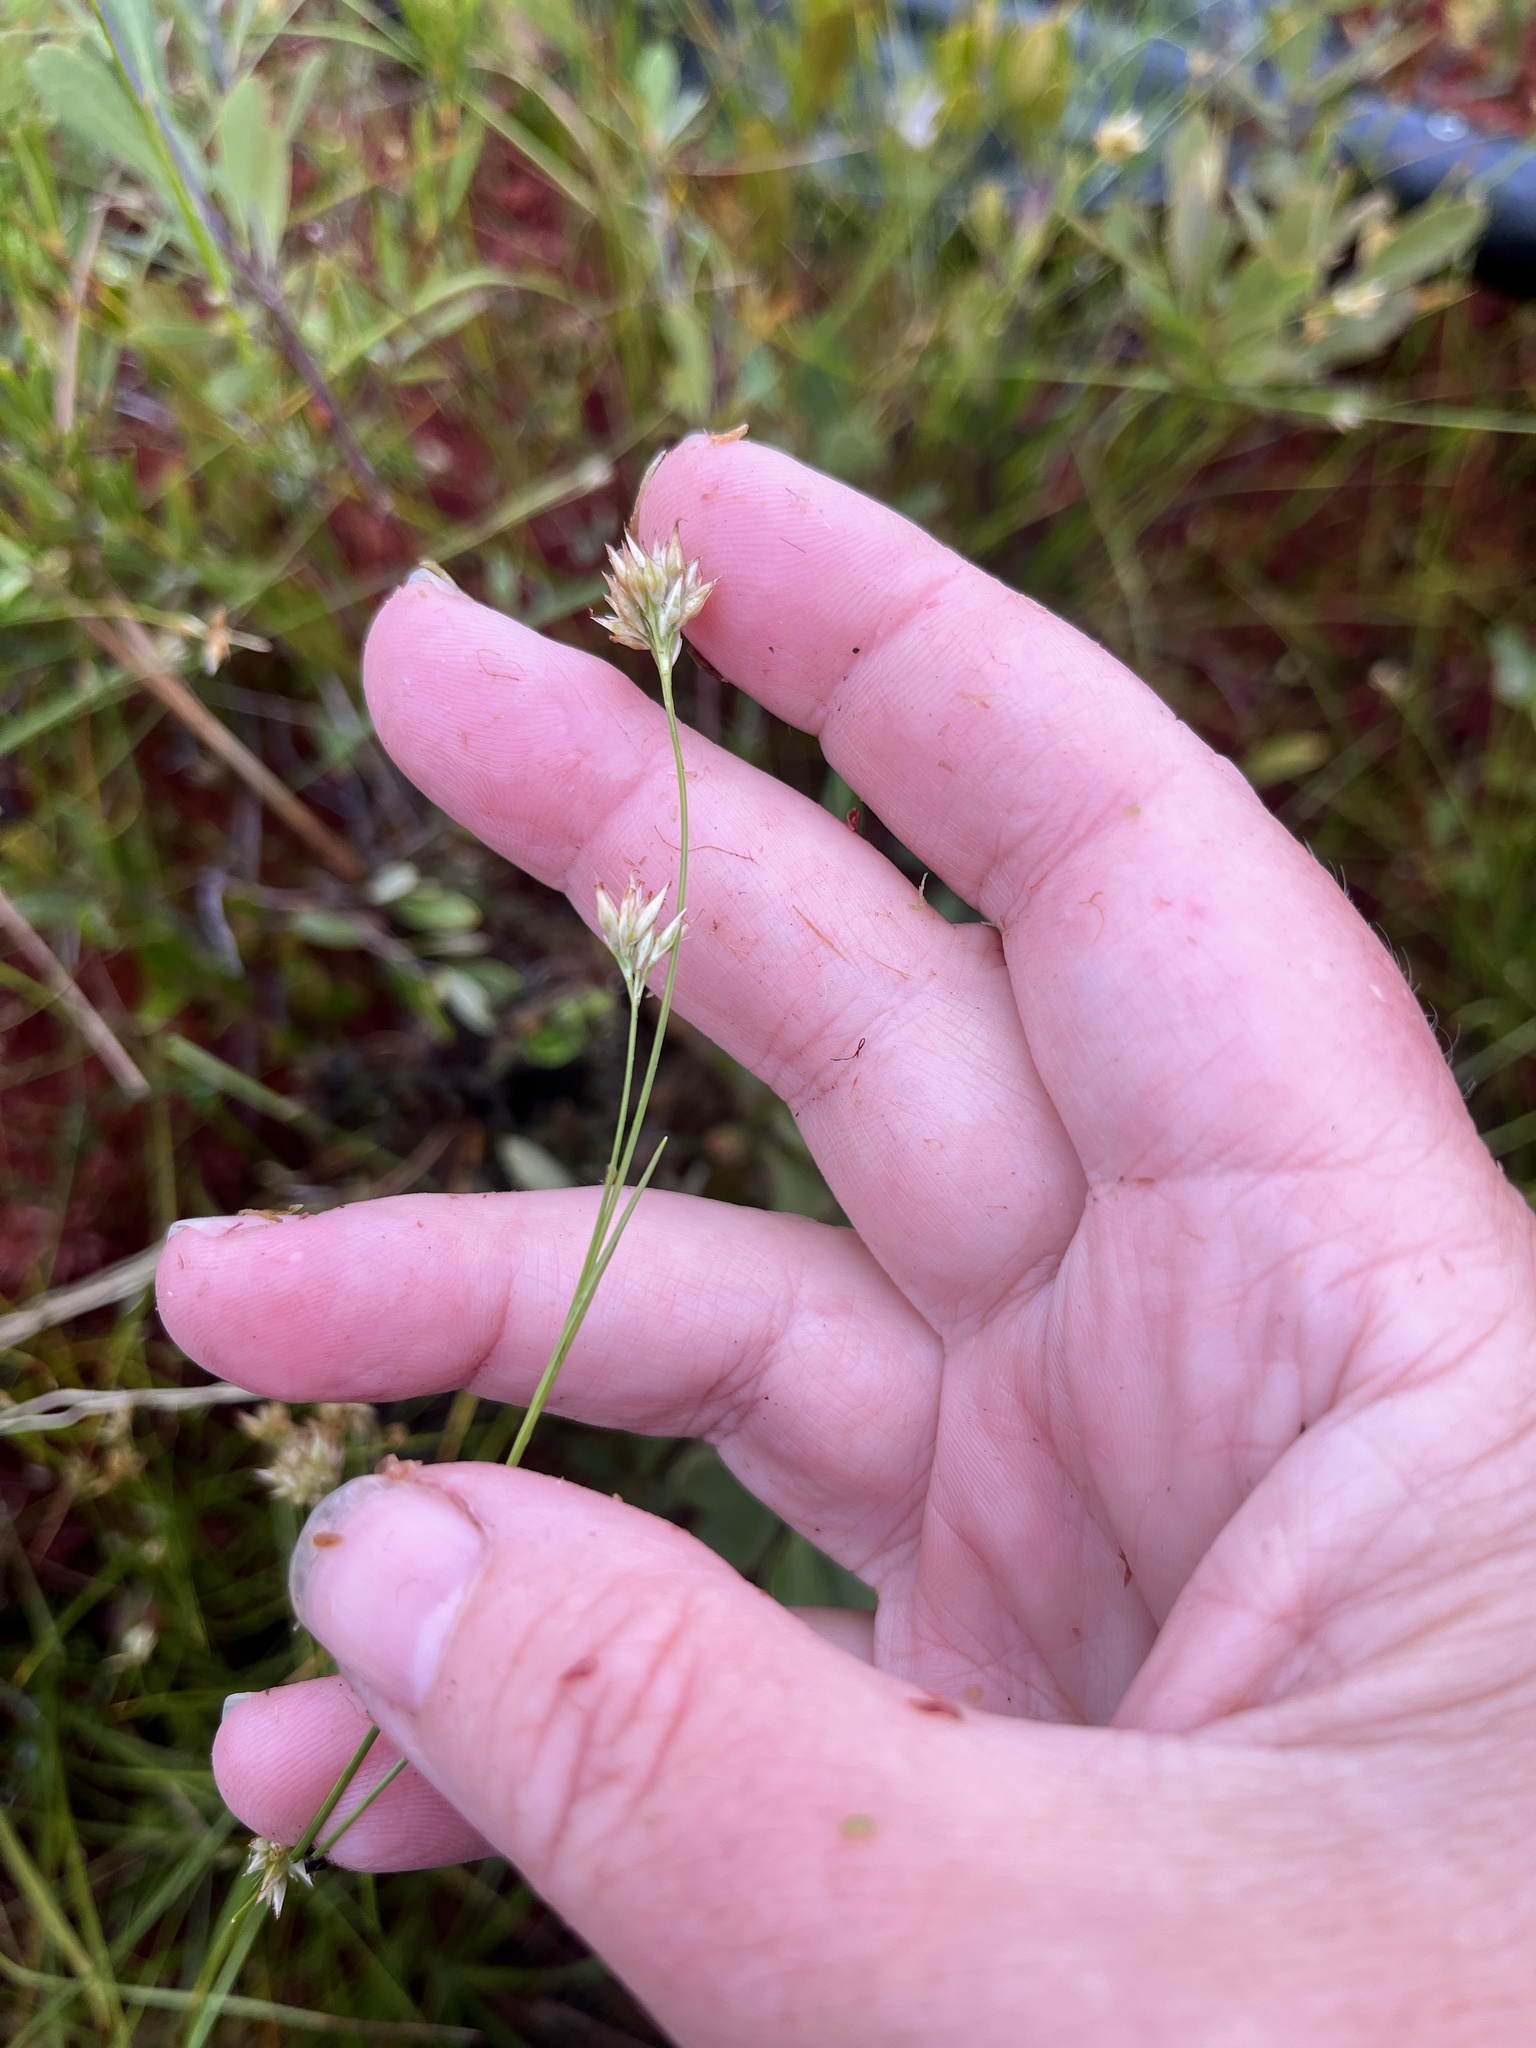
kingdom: Plantae
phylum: Tracheophyta
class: Liliopsida
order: Poales
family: Cyperaceae
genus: Rhynchospora
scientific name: Rhynchospora alba
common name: White beak-sedge
